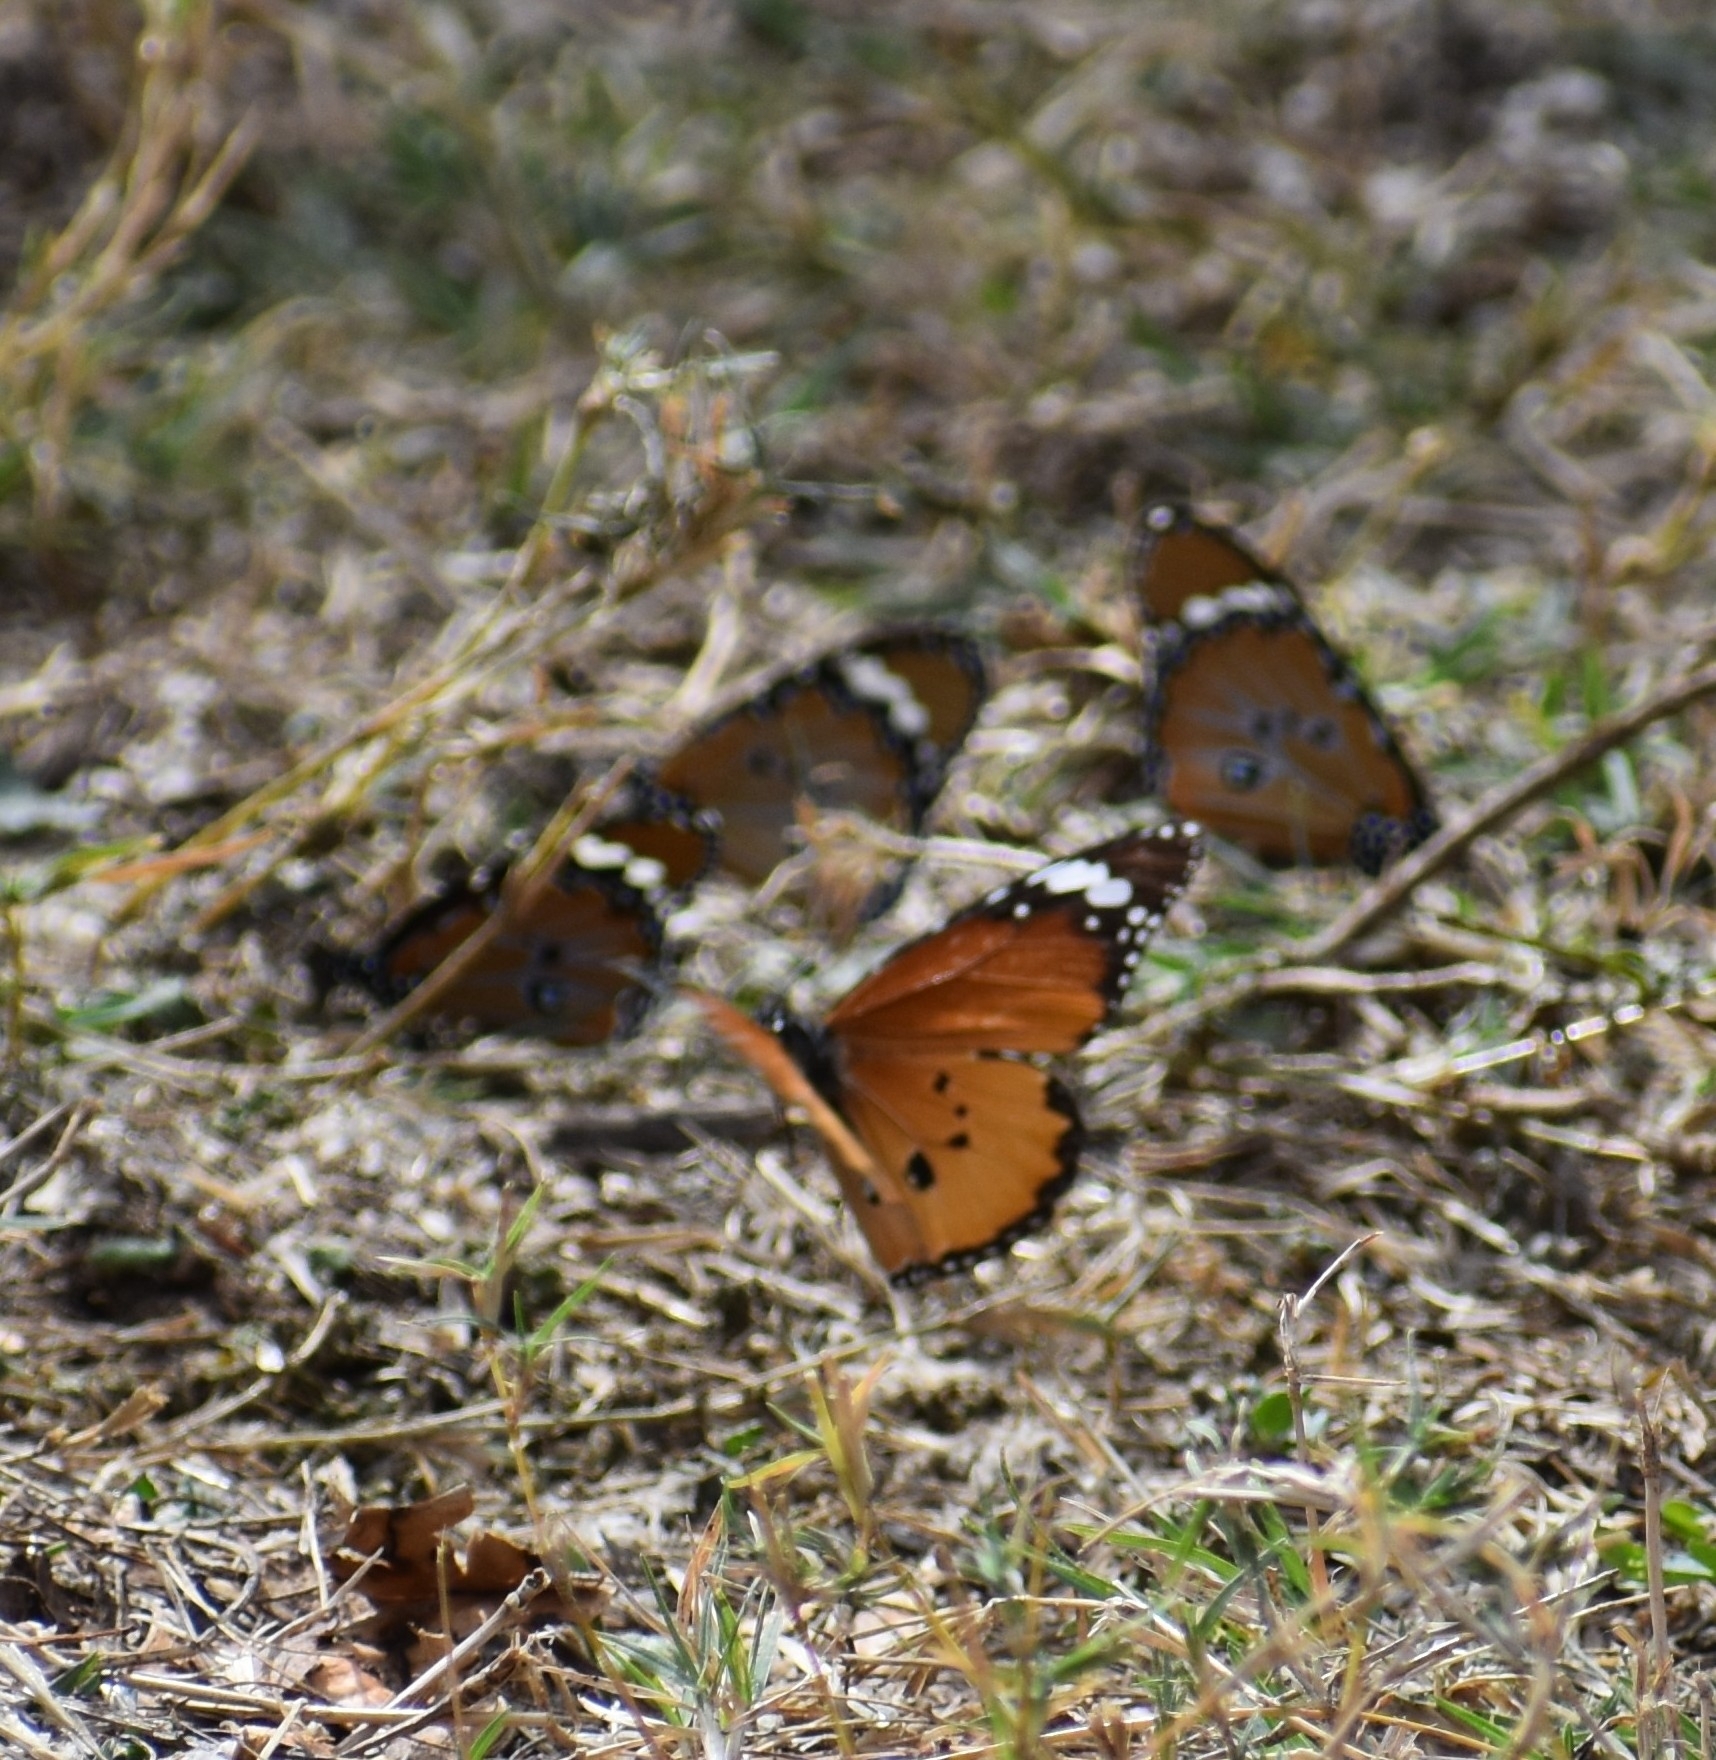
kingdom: Animalia
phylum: Arthropoda
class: Insecta
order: Lepidoptera
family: Nymphalidae
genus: Danaus
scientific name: Danaus chrysippus
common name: Plain tiger
